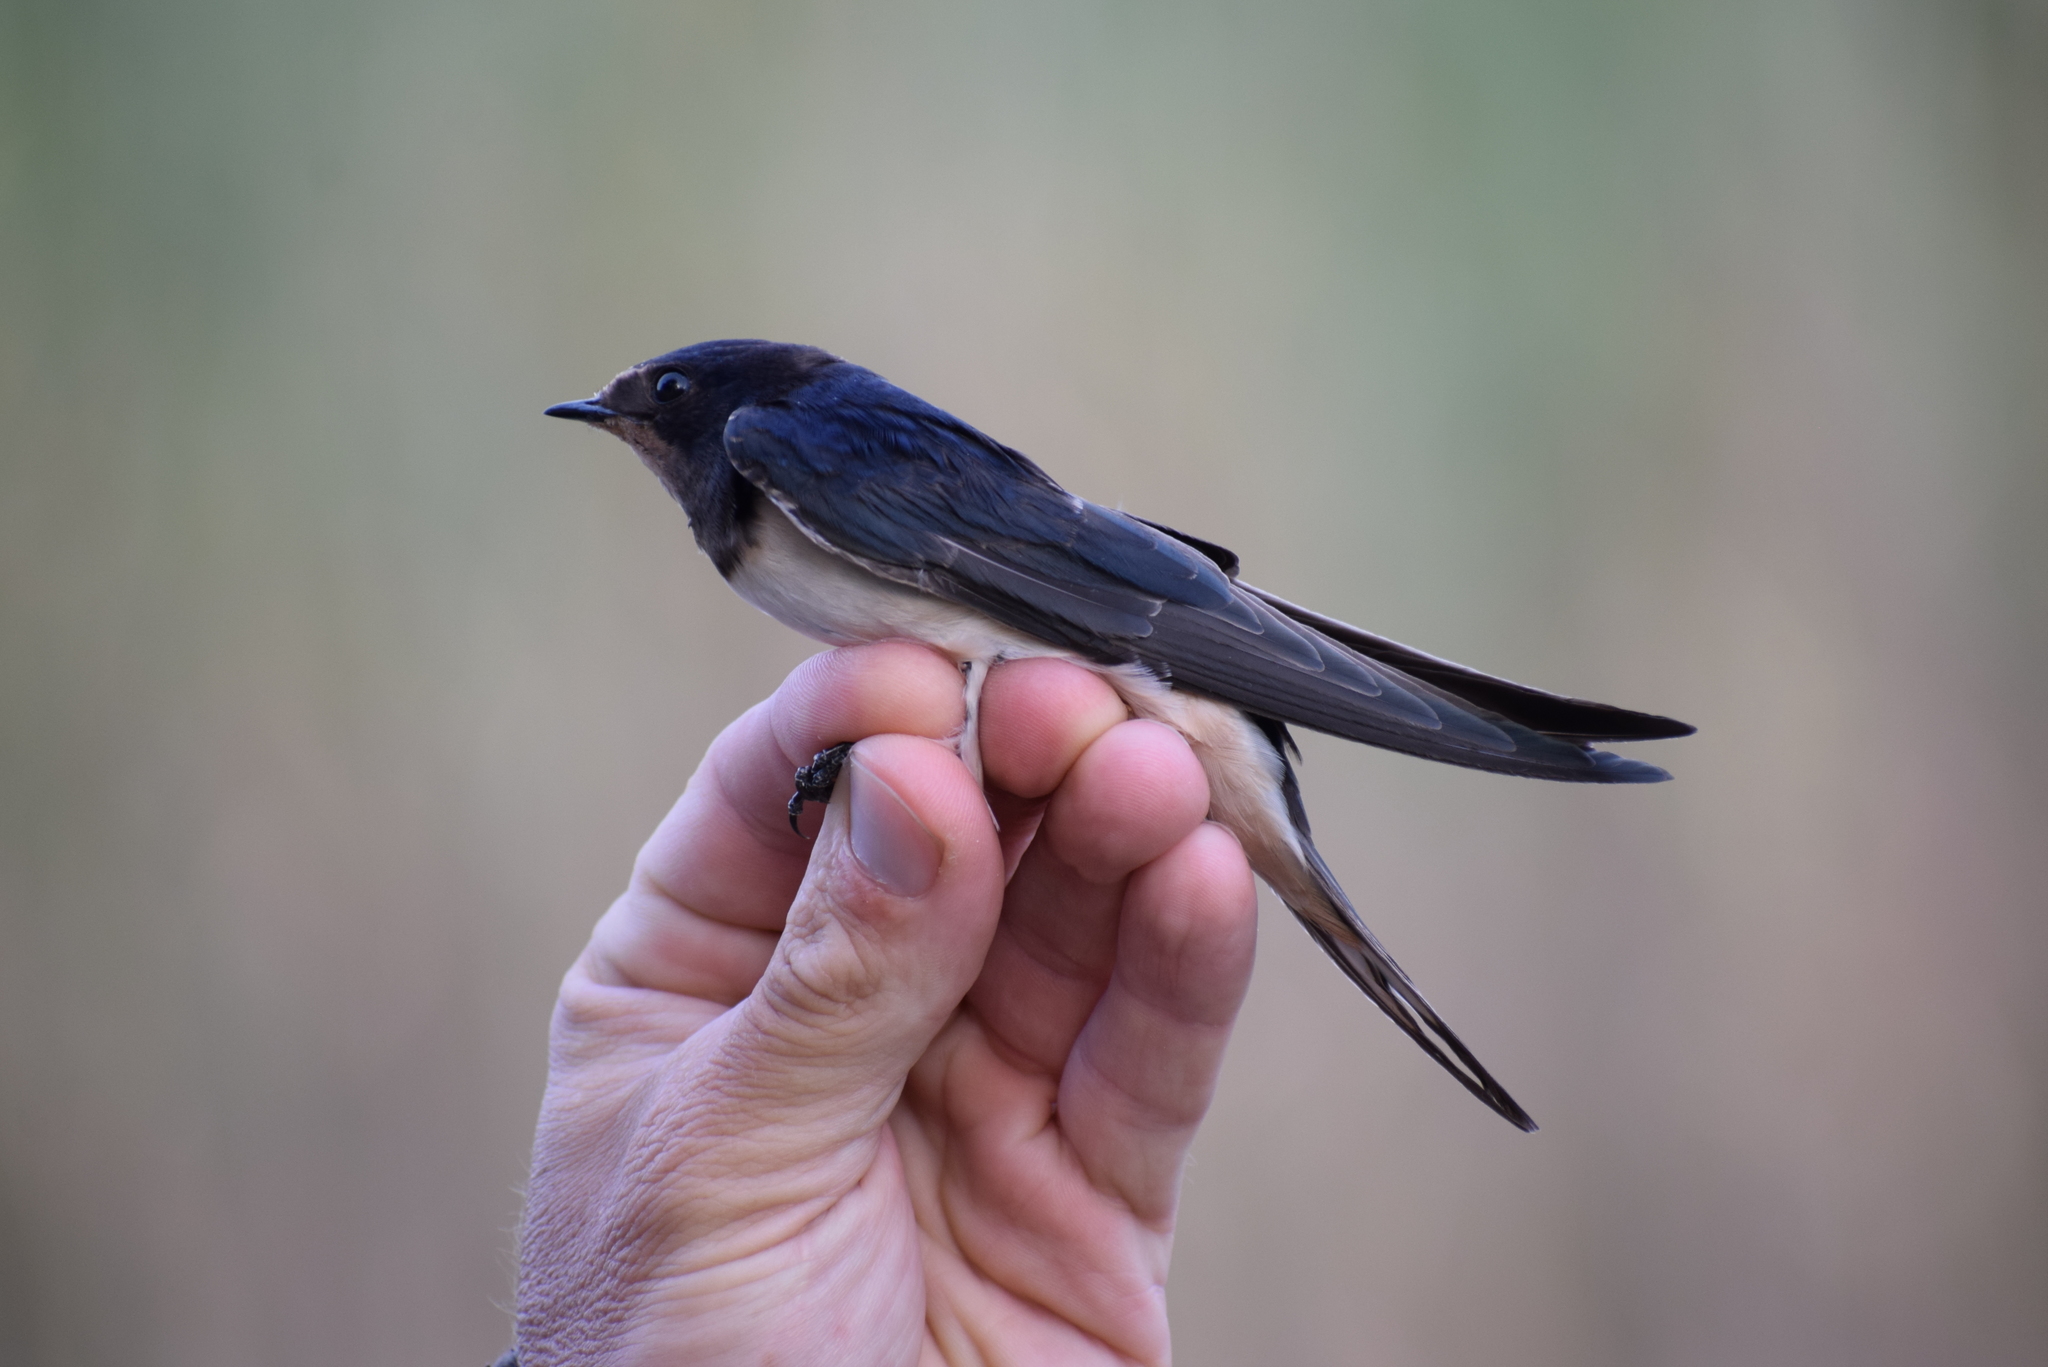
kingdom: Animalia
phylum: Chordata
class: Aves
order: Passeriformes
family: Hirundinidae
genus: Hirundo
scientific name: Hirundo rustica
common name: Barn swallow
